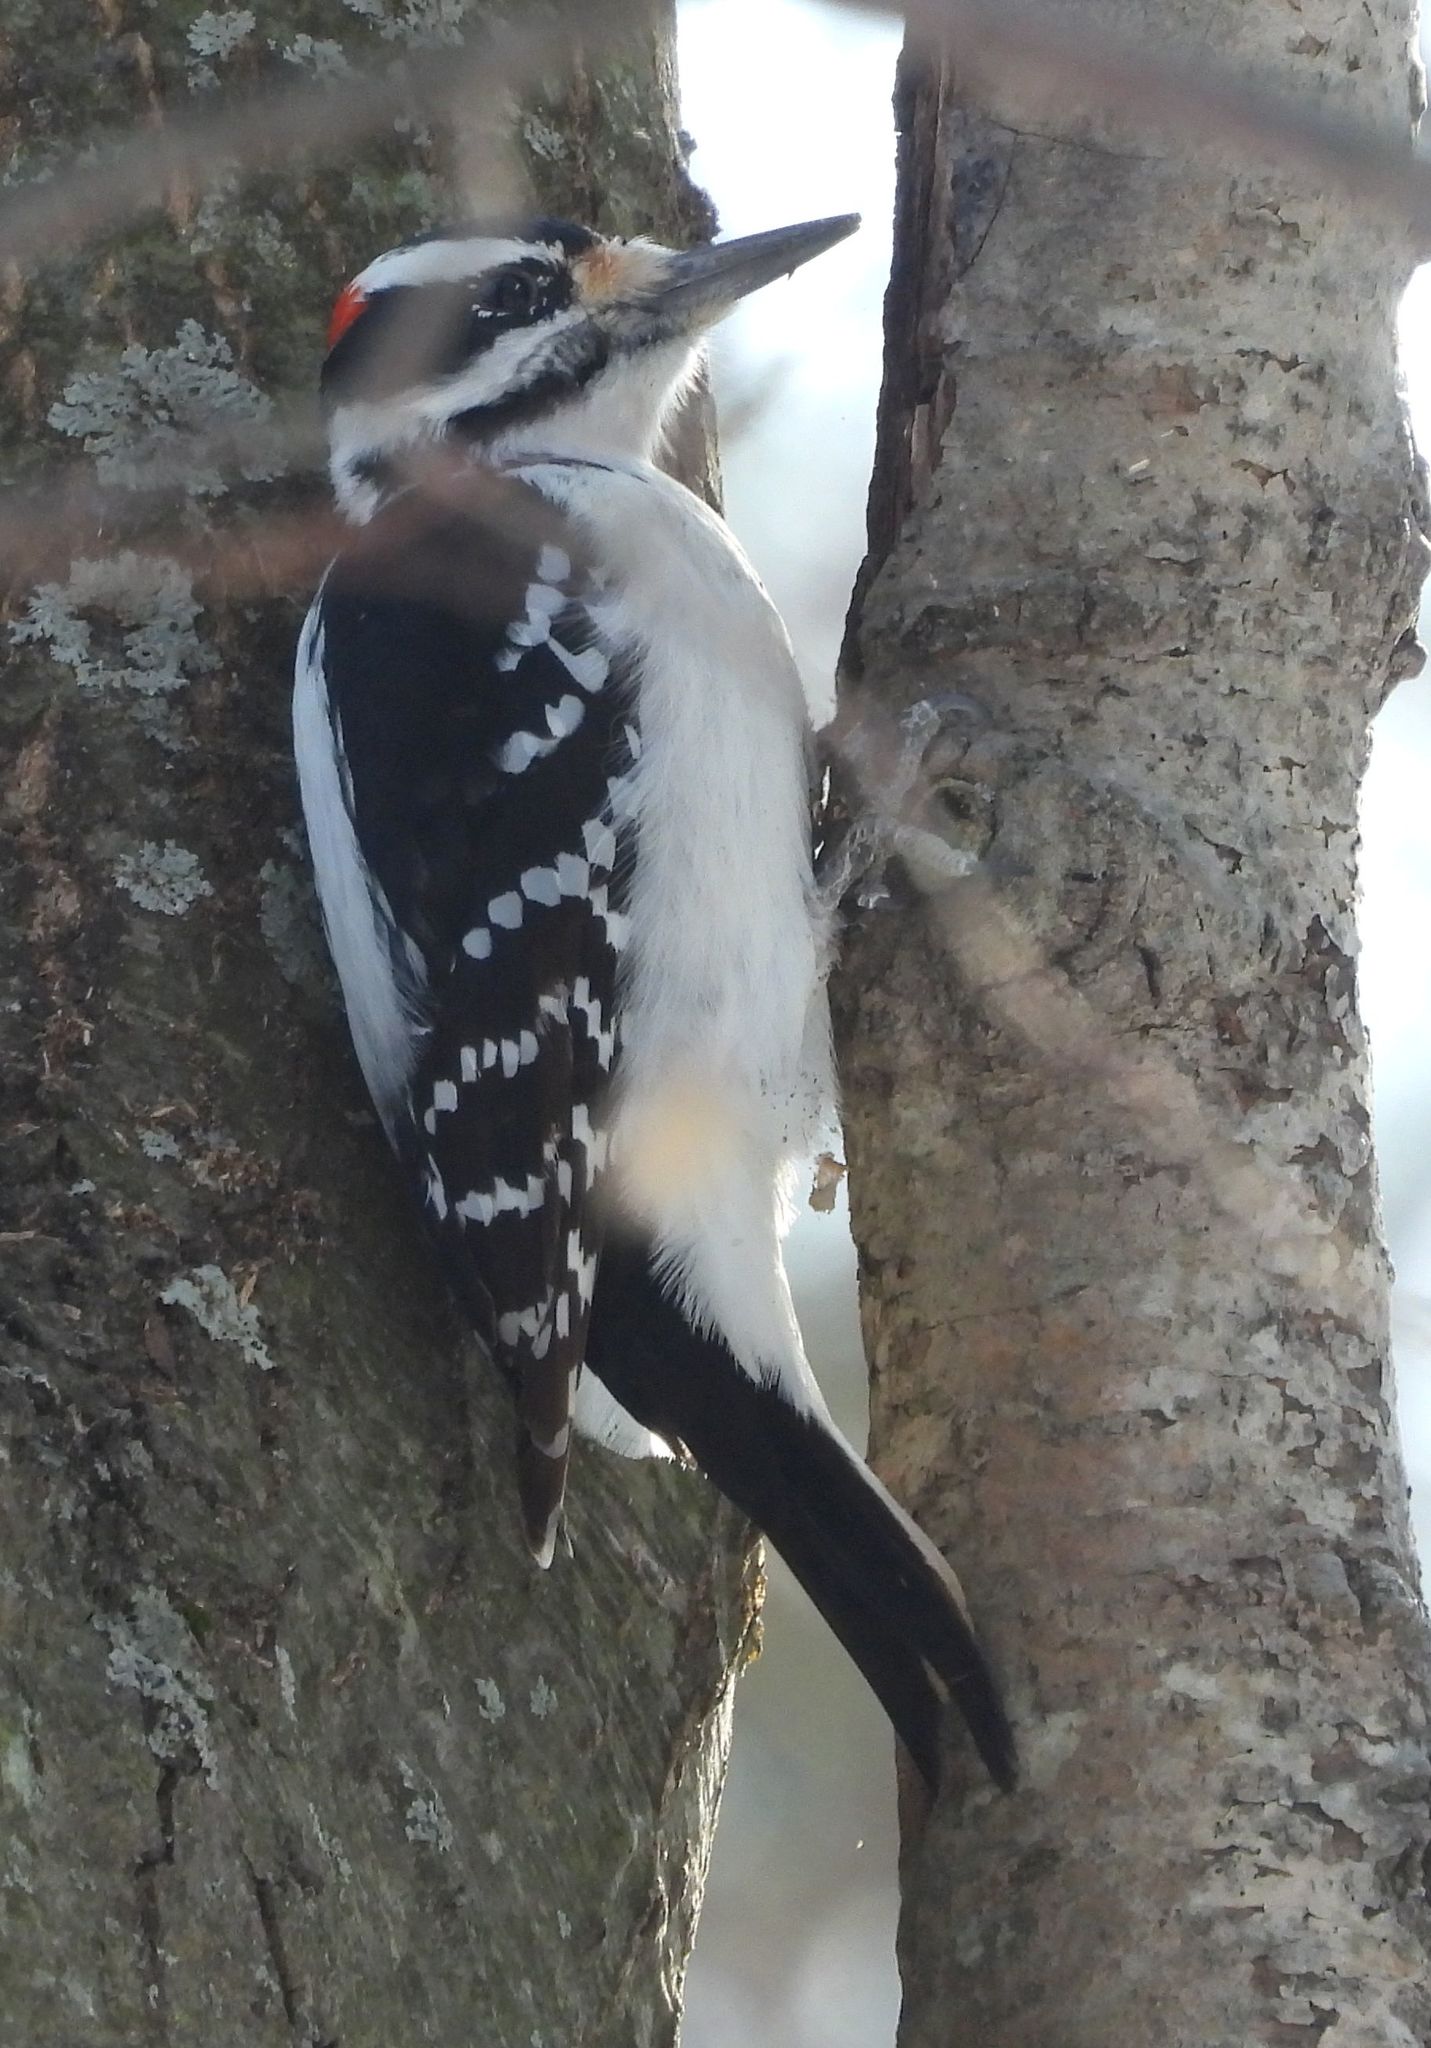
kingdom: Animalia
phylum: Chordata
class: Aves
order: Piciformes
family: Picidae
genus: Leuconotopicus
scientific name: Leuconotopicus villosus
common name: Hairy woodpecker
